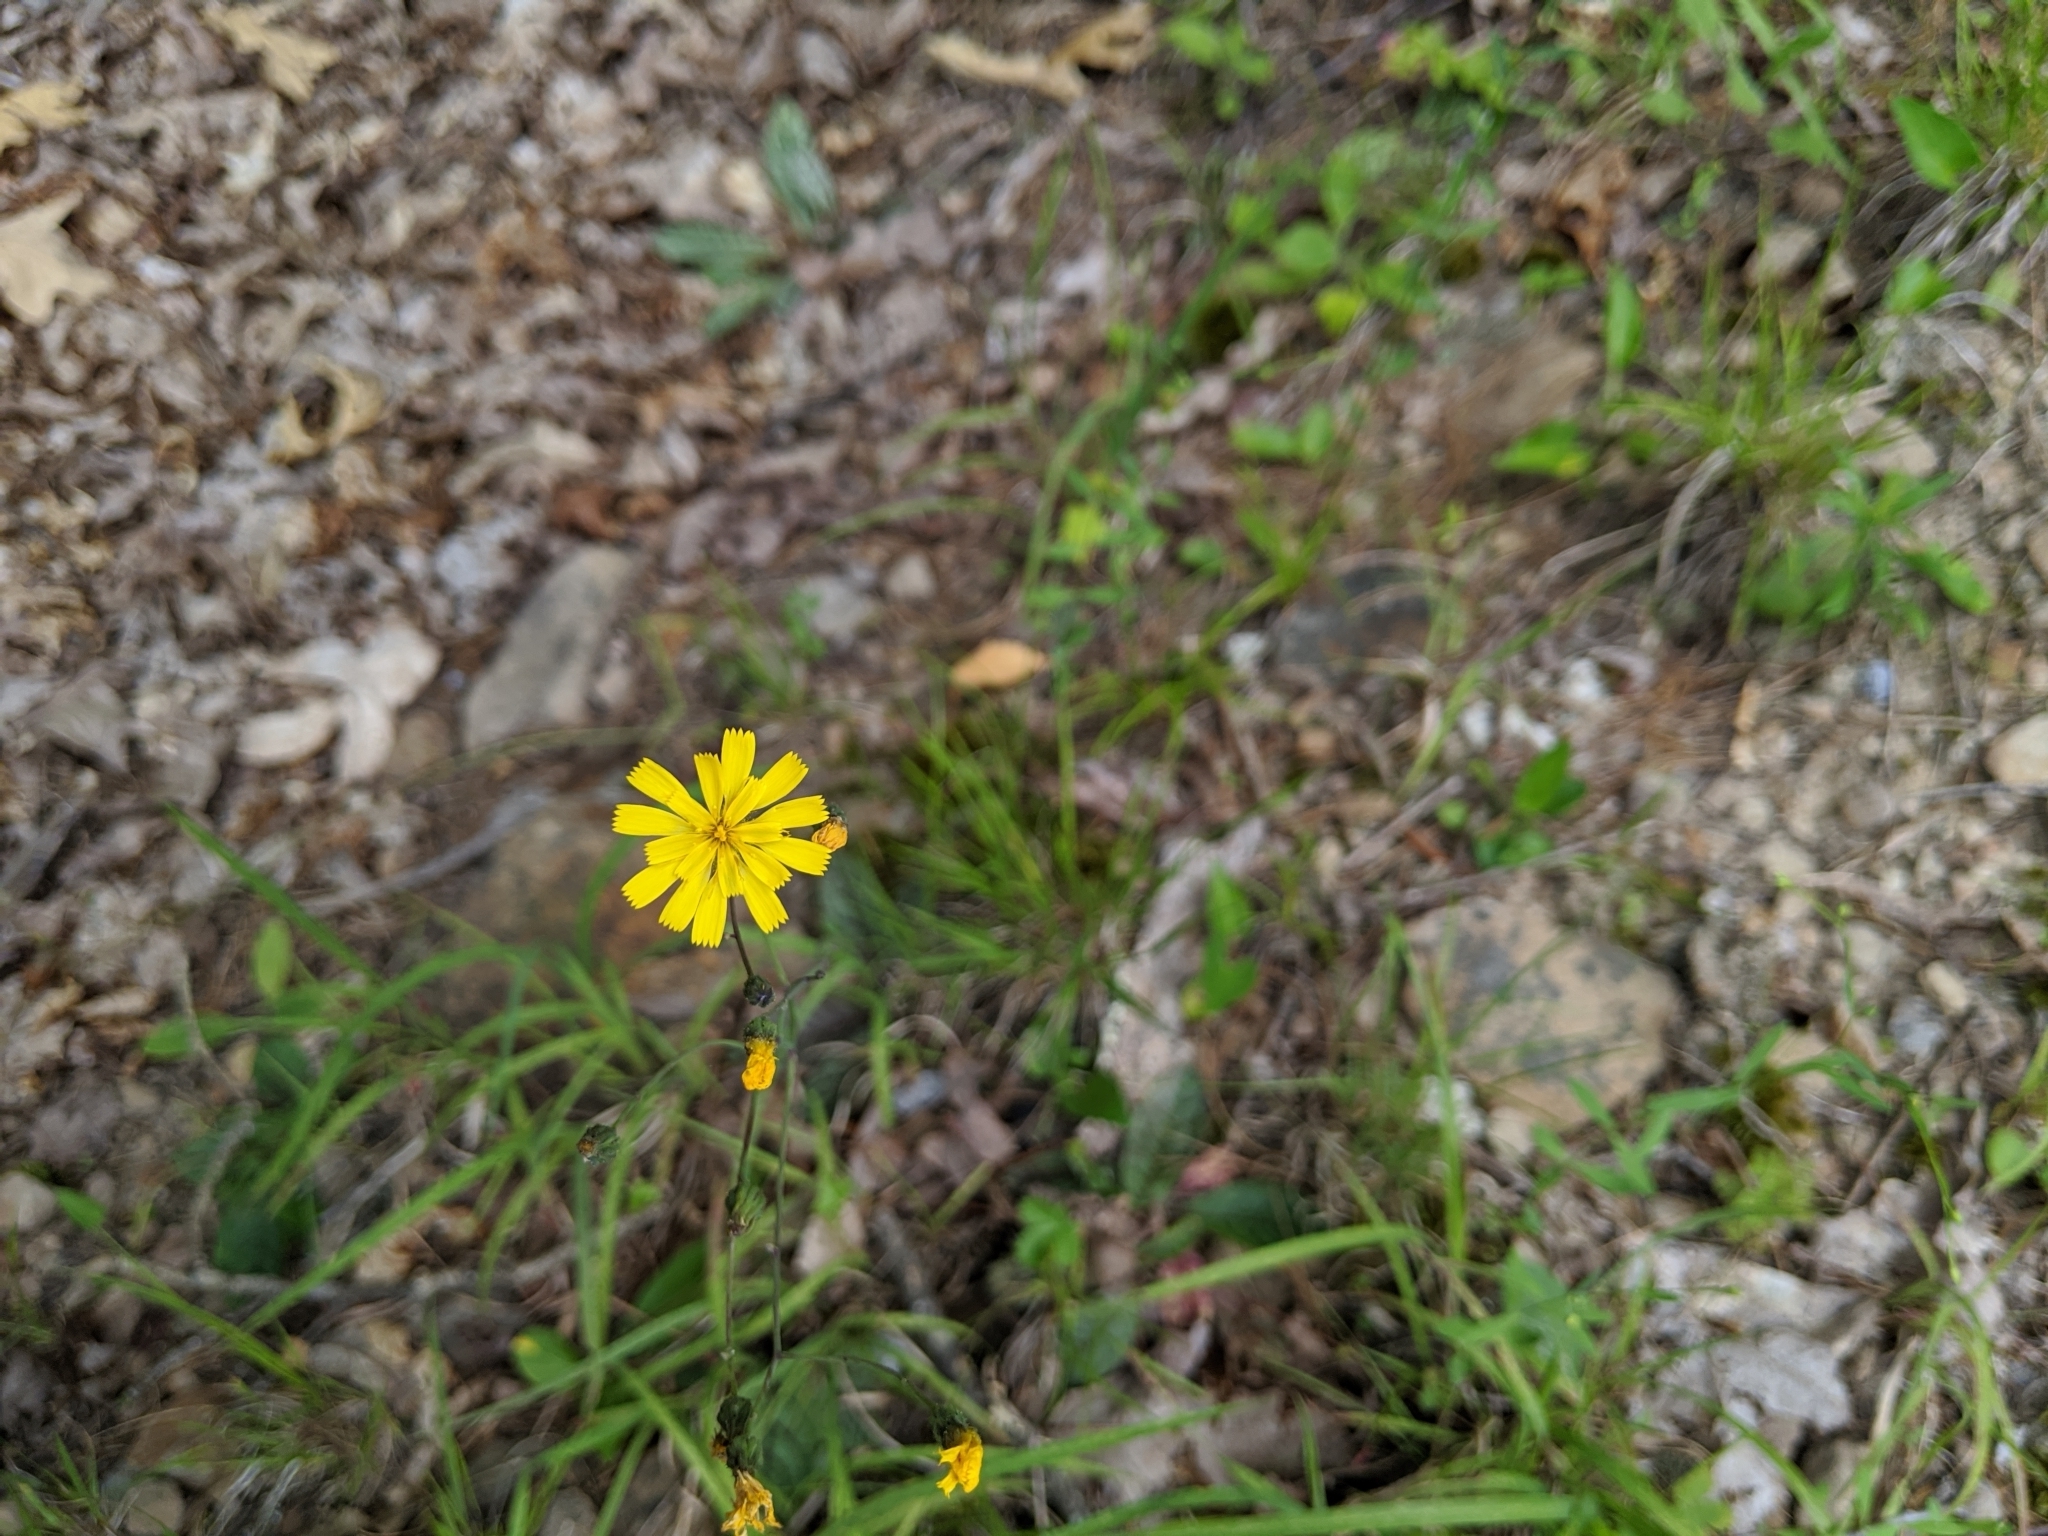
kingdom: Plantae
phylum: Tracheophyta
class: Magnoliopsida
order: Asterales
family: Asteraceae
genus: Hieracium
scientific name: Hieracium venosum
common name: Rattlesnake hawkweed
